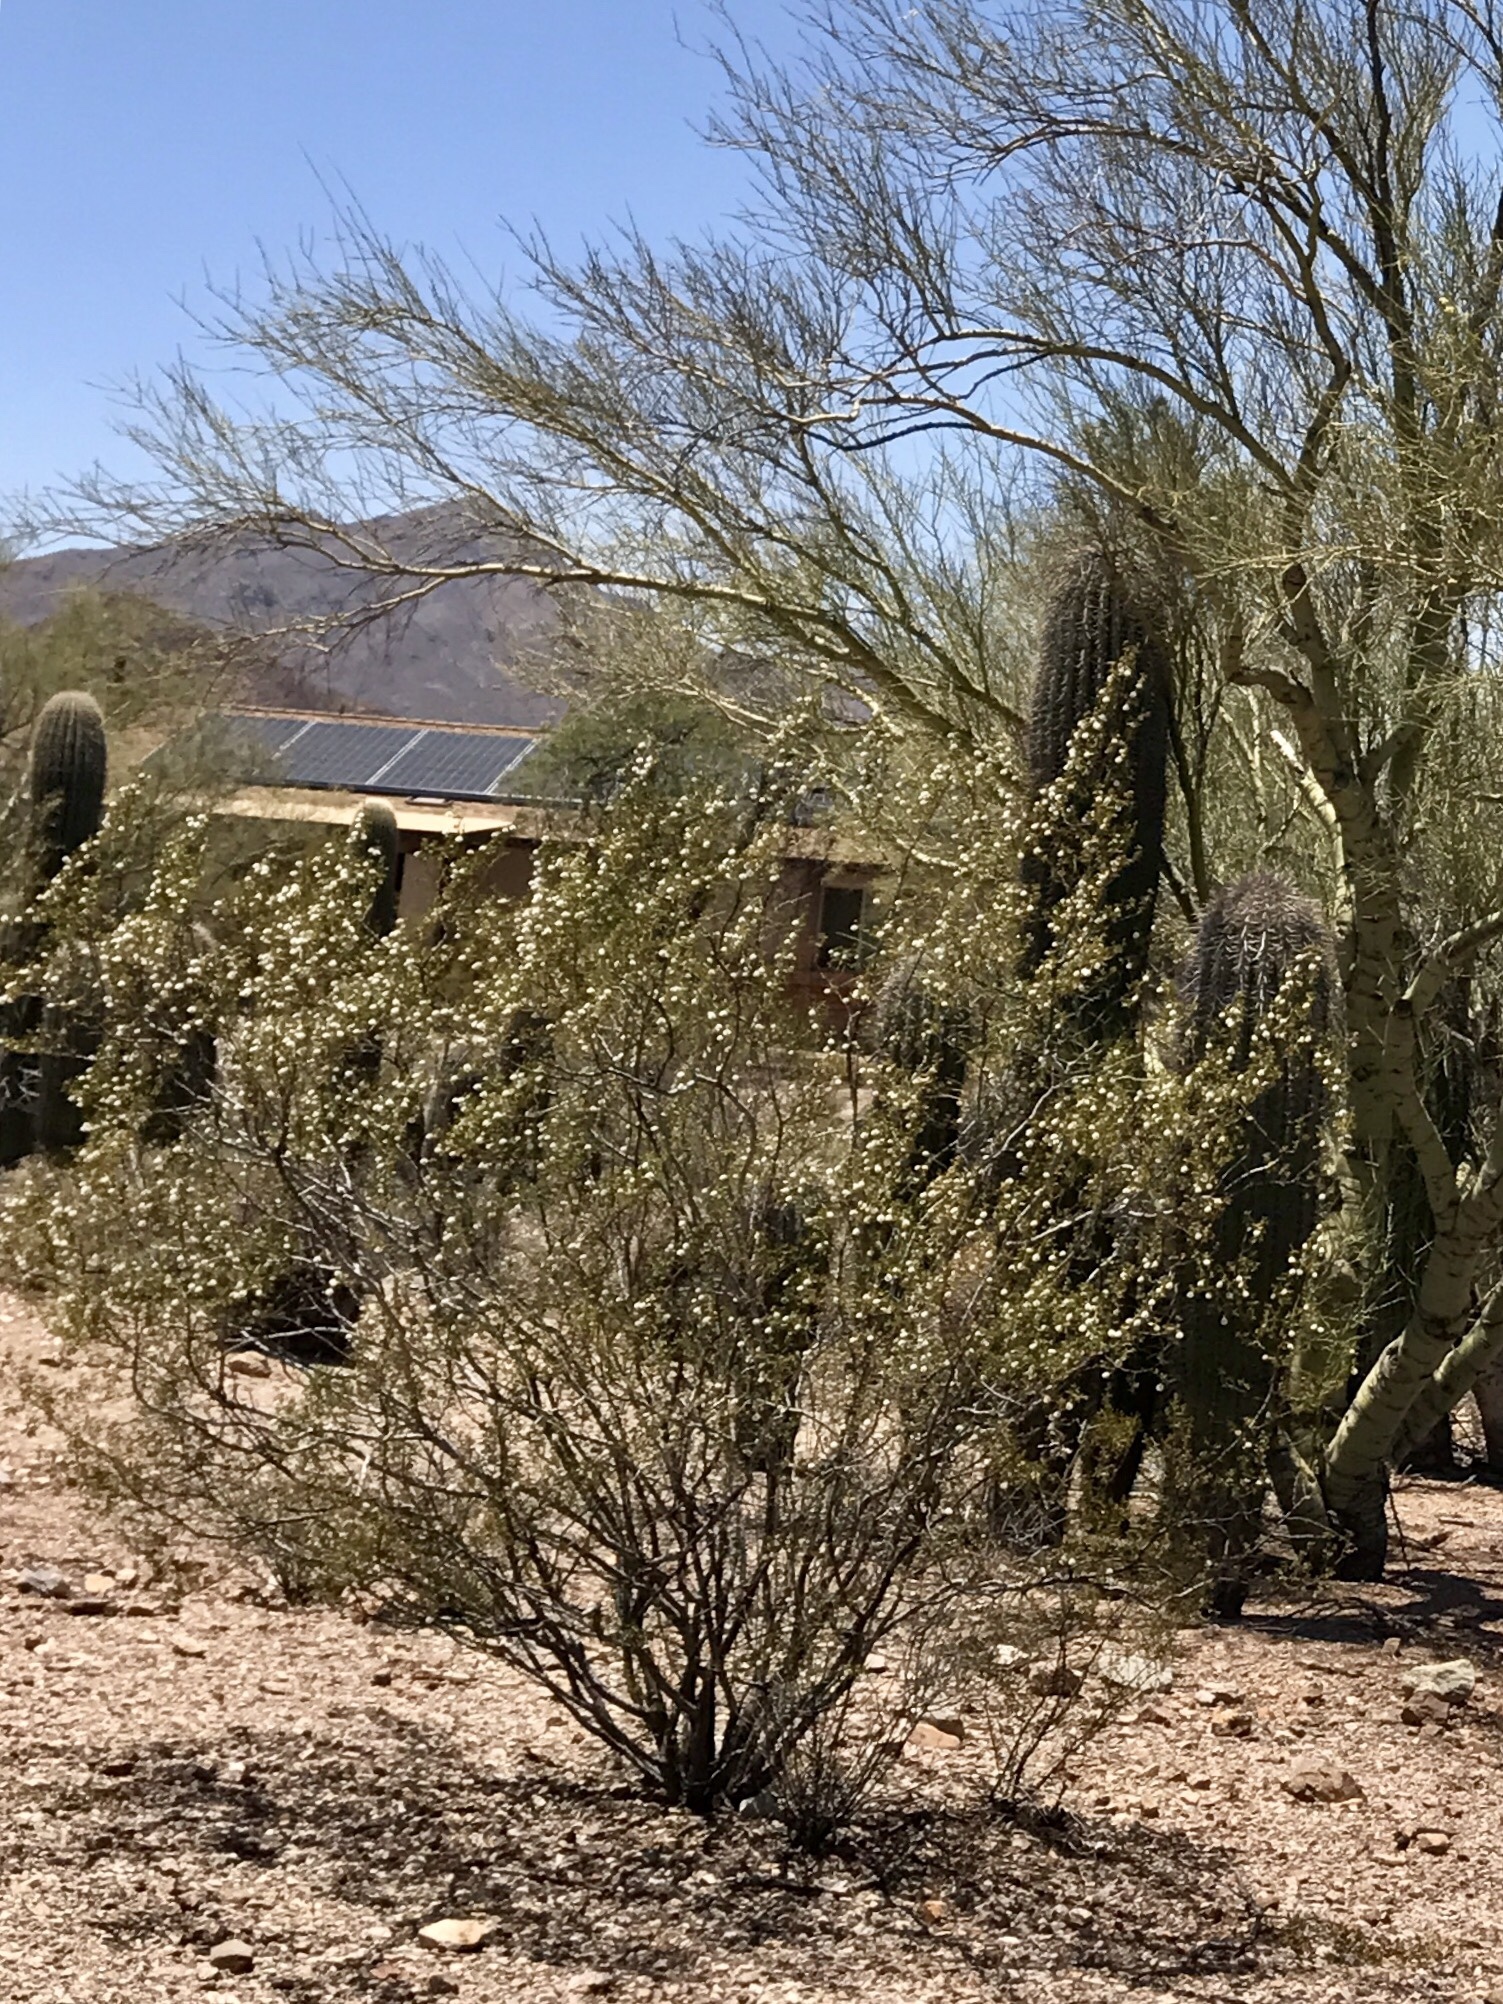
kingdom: Plantae
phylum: Tracheophyta
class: Magnoliopsida
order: Zygophyllales
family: Zygophyllaceae
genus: Larrea
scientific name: Larrea tridentata
